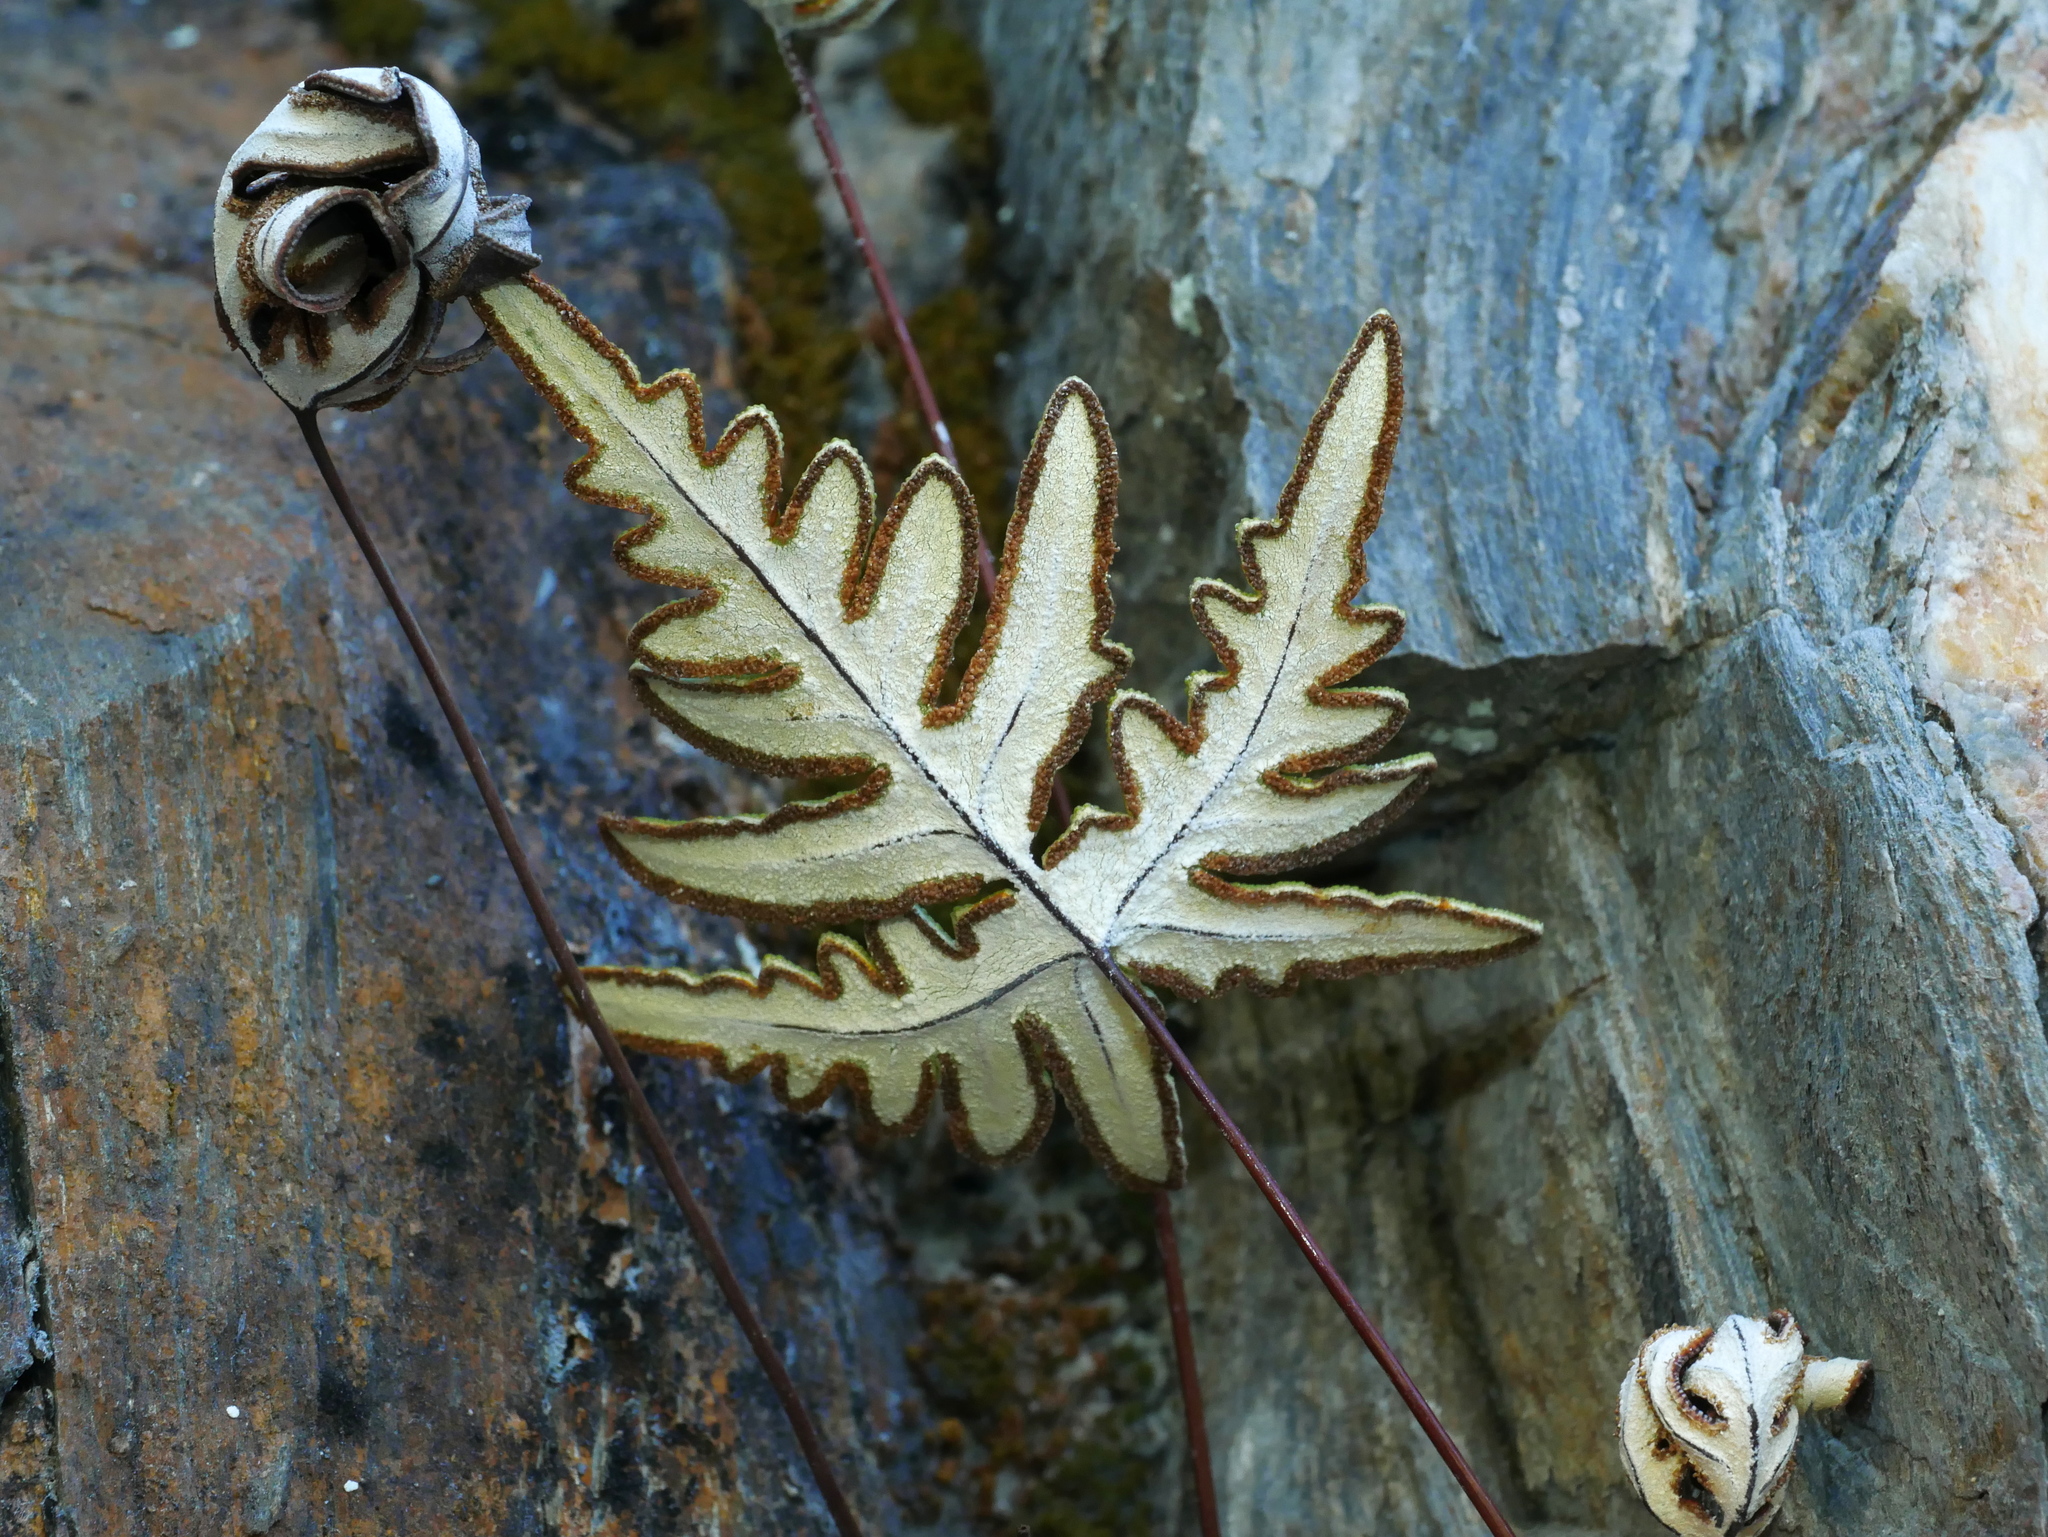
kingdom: Plantae
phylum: Tracheophyta
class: Polypodiopsida
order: Polypodiales
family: Pteridaceae
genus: Aleuritopteris
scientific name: Aleuritopteris argentea
